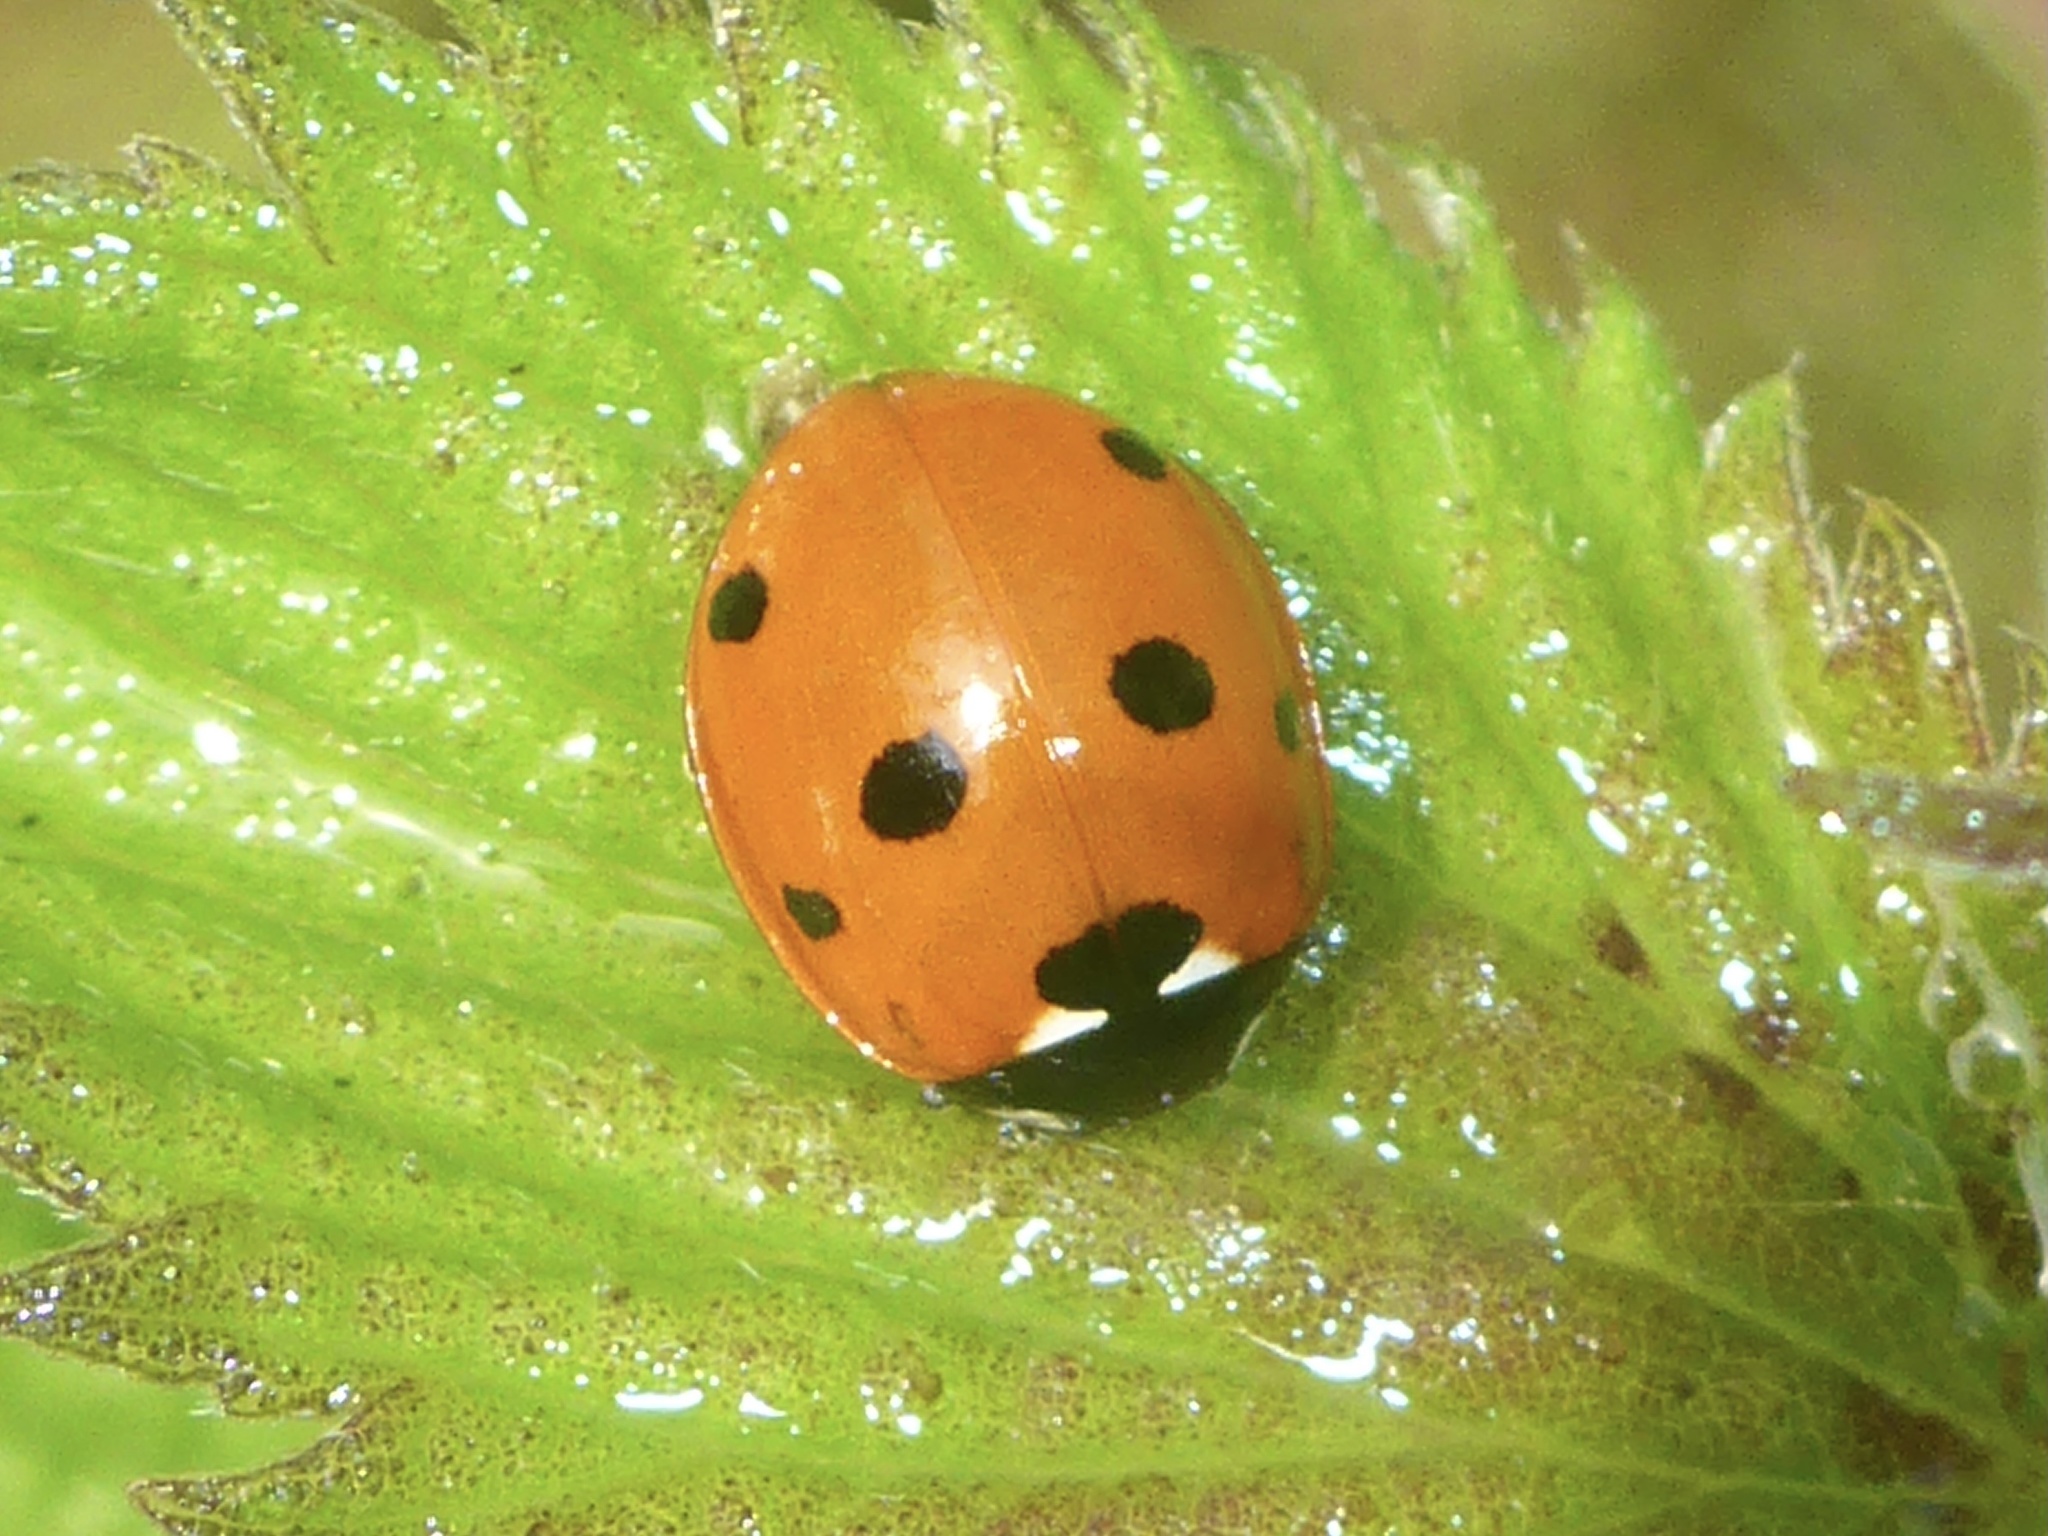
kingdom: Animalia
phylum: Arthropoda
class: Insecta
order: Coleoptera
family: Coccinellidae
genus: Coccinella
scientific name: Coccinella septempunctata
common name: Sevenspotted lady beetle
